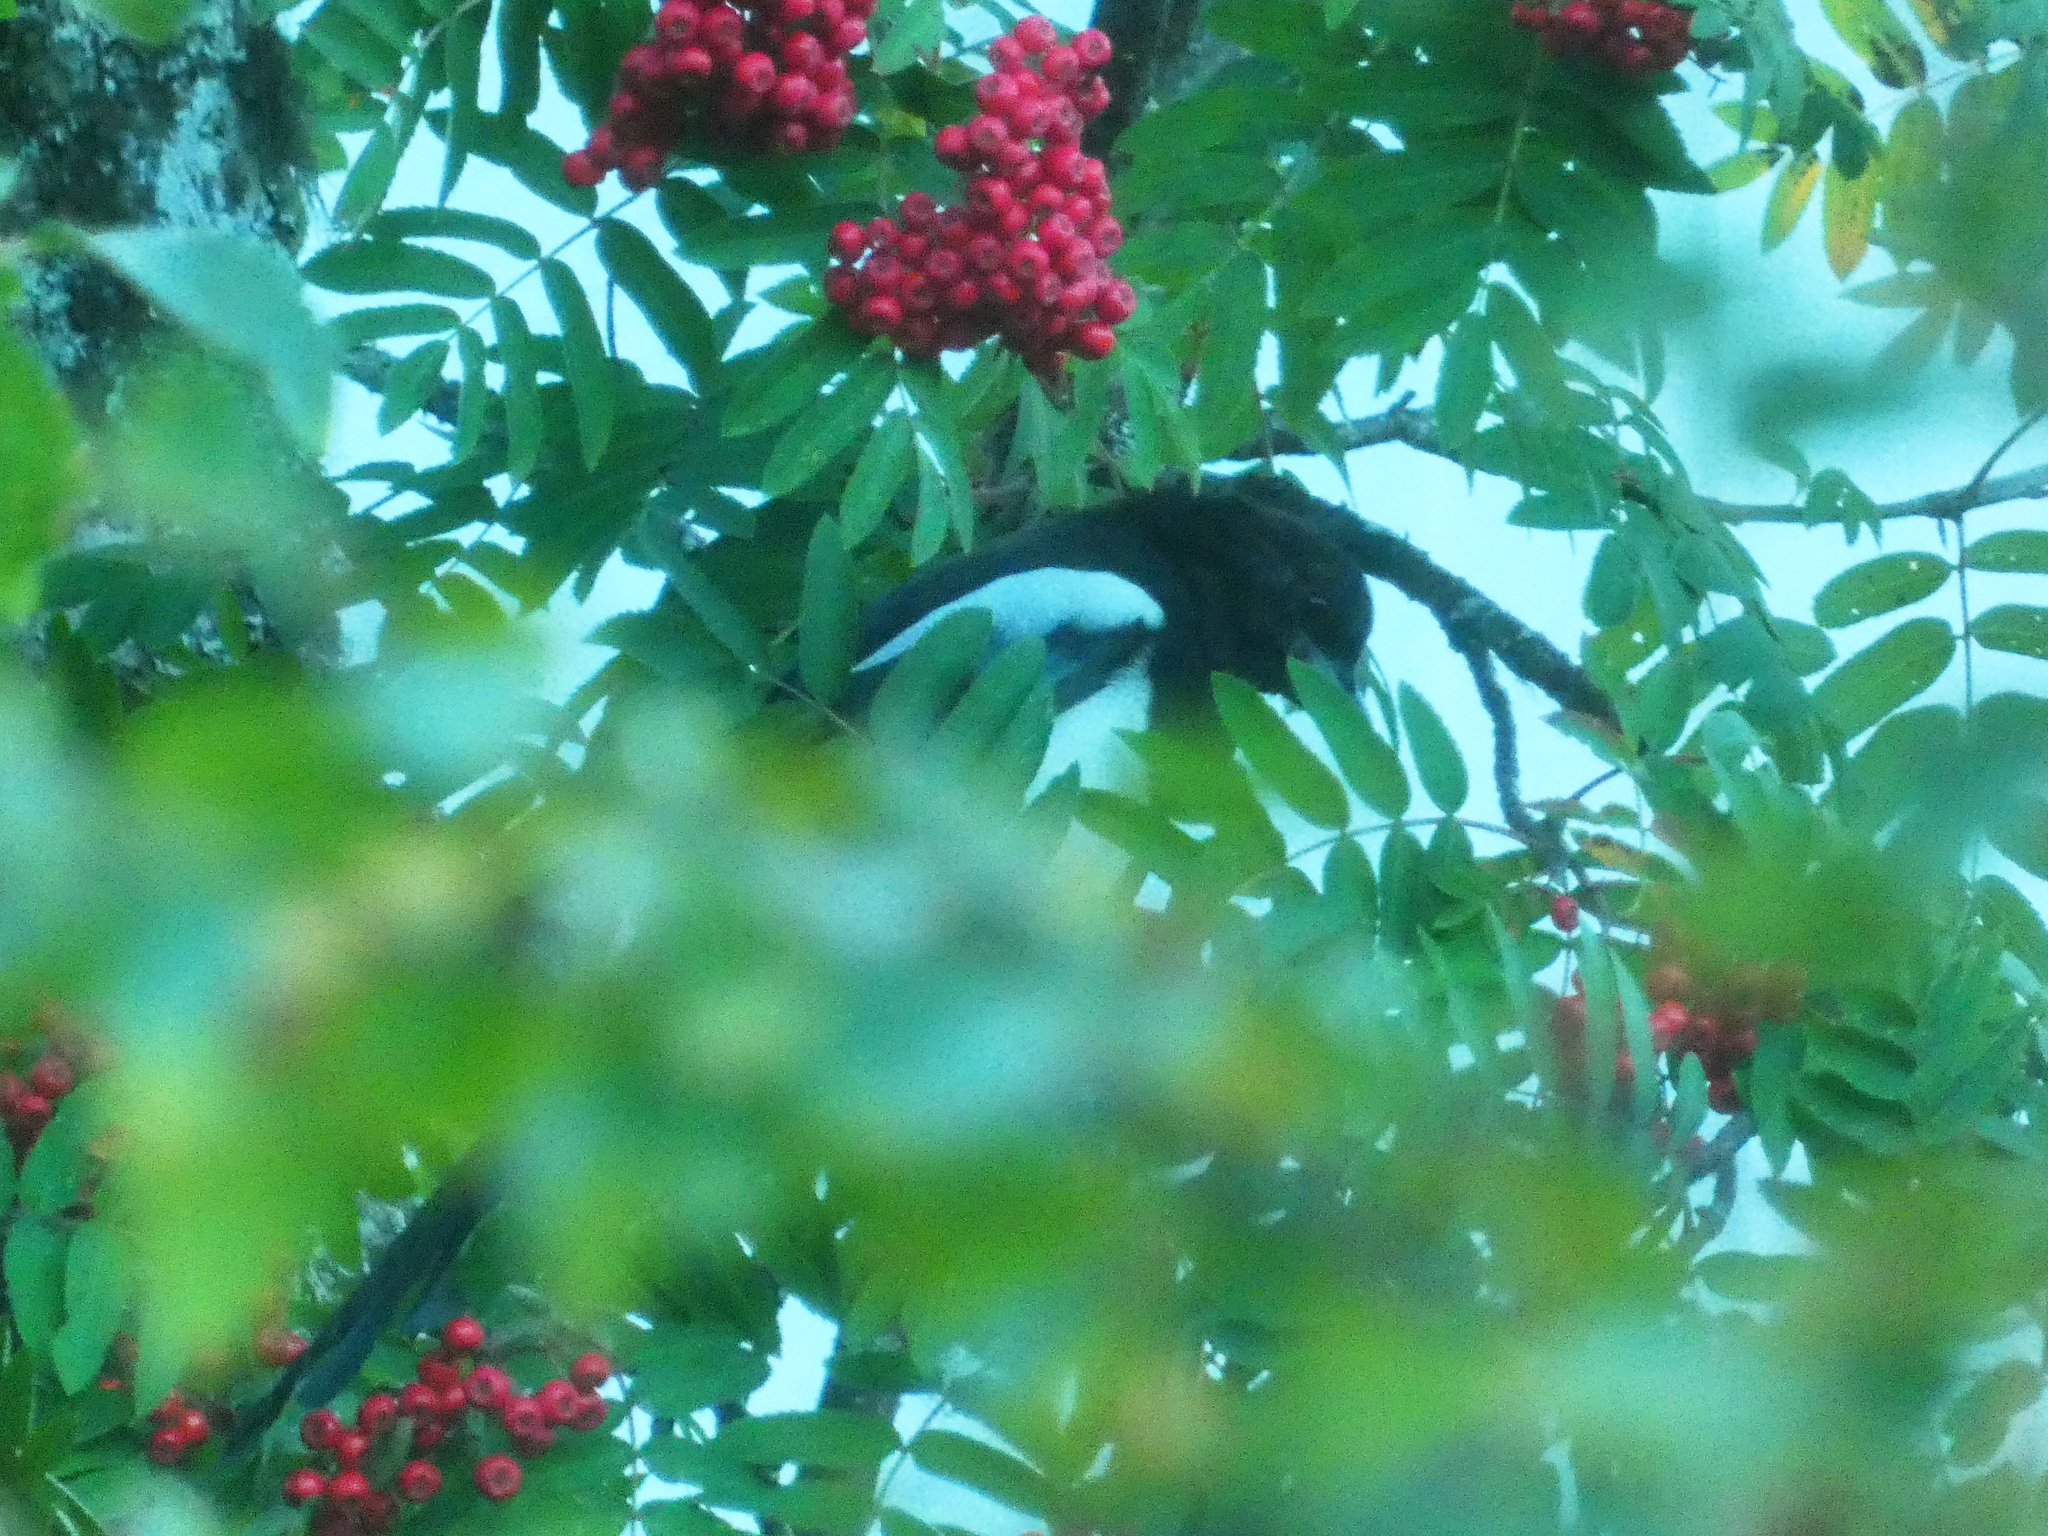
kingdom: Animalia
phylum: Chordata
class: Aves
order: Passeriformes
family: Corvidae
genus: Pica
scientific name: Pica pica
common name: Eurasian magpie
